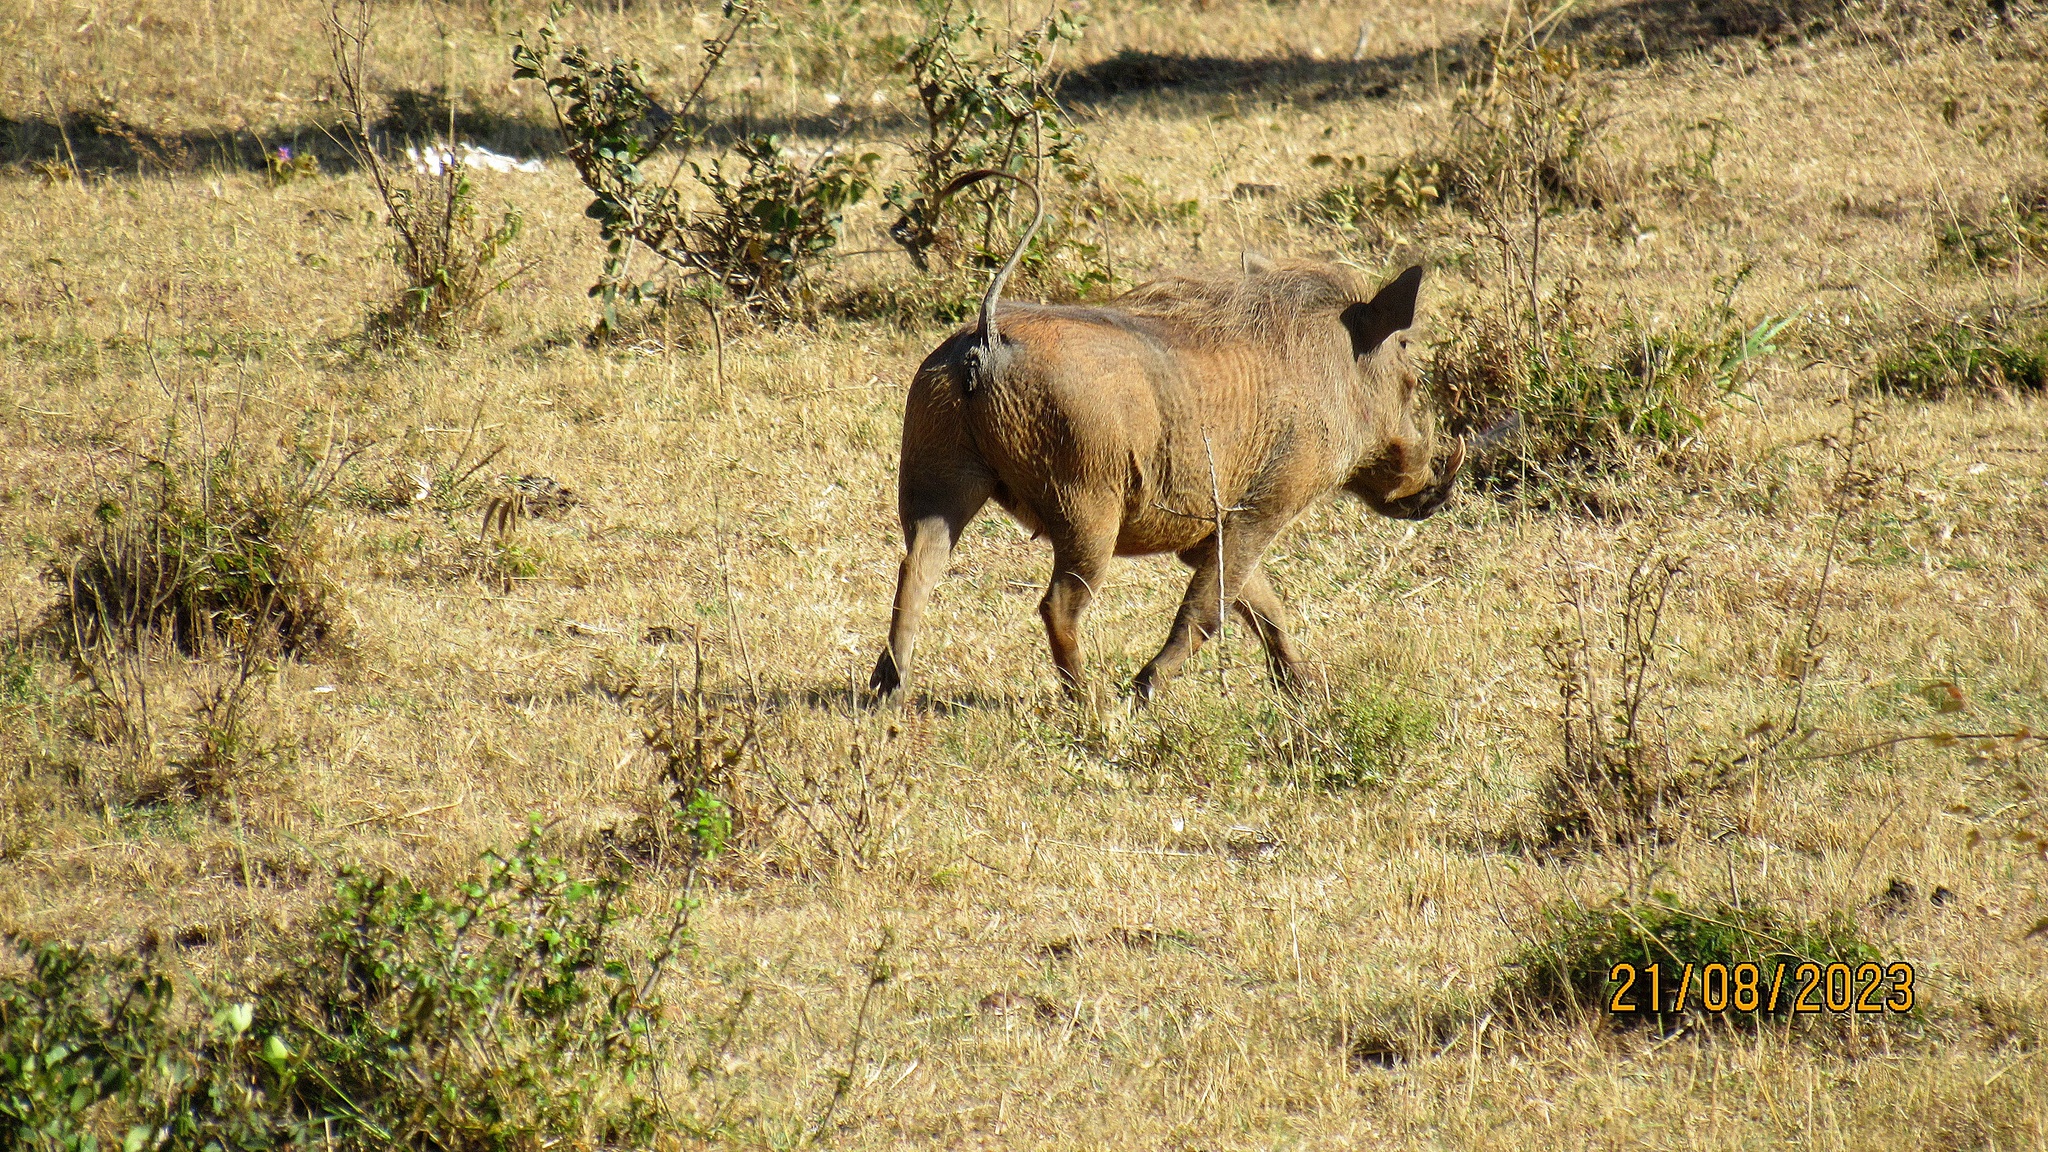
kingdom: Animalia
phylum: Chordata
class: Mammalia
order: Artiodactyla
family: Suidae
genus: Phacochoerus
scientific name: Phacochoerus africanus
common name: Common warthog
